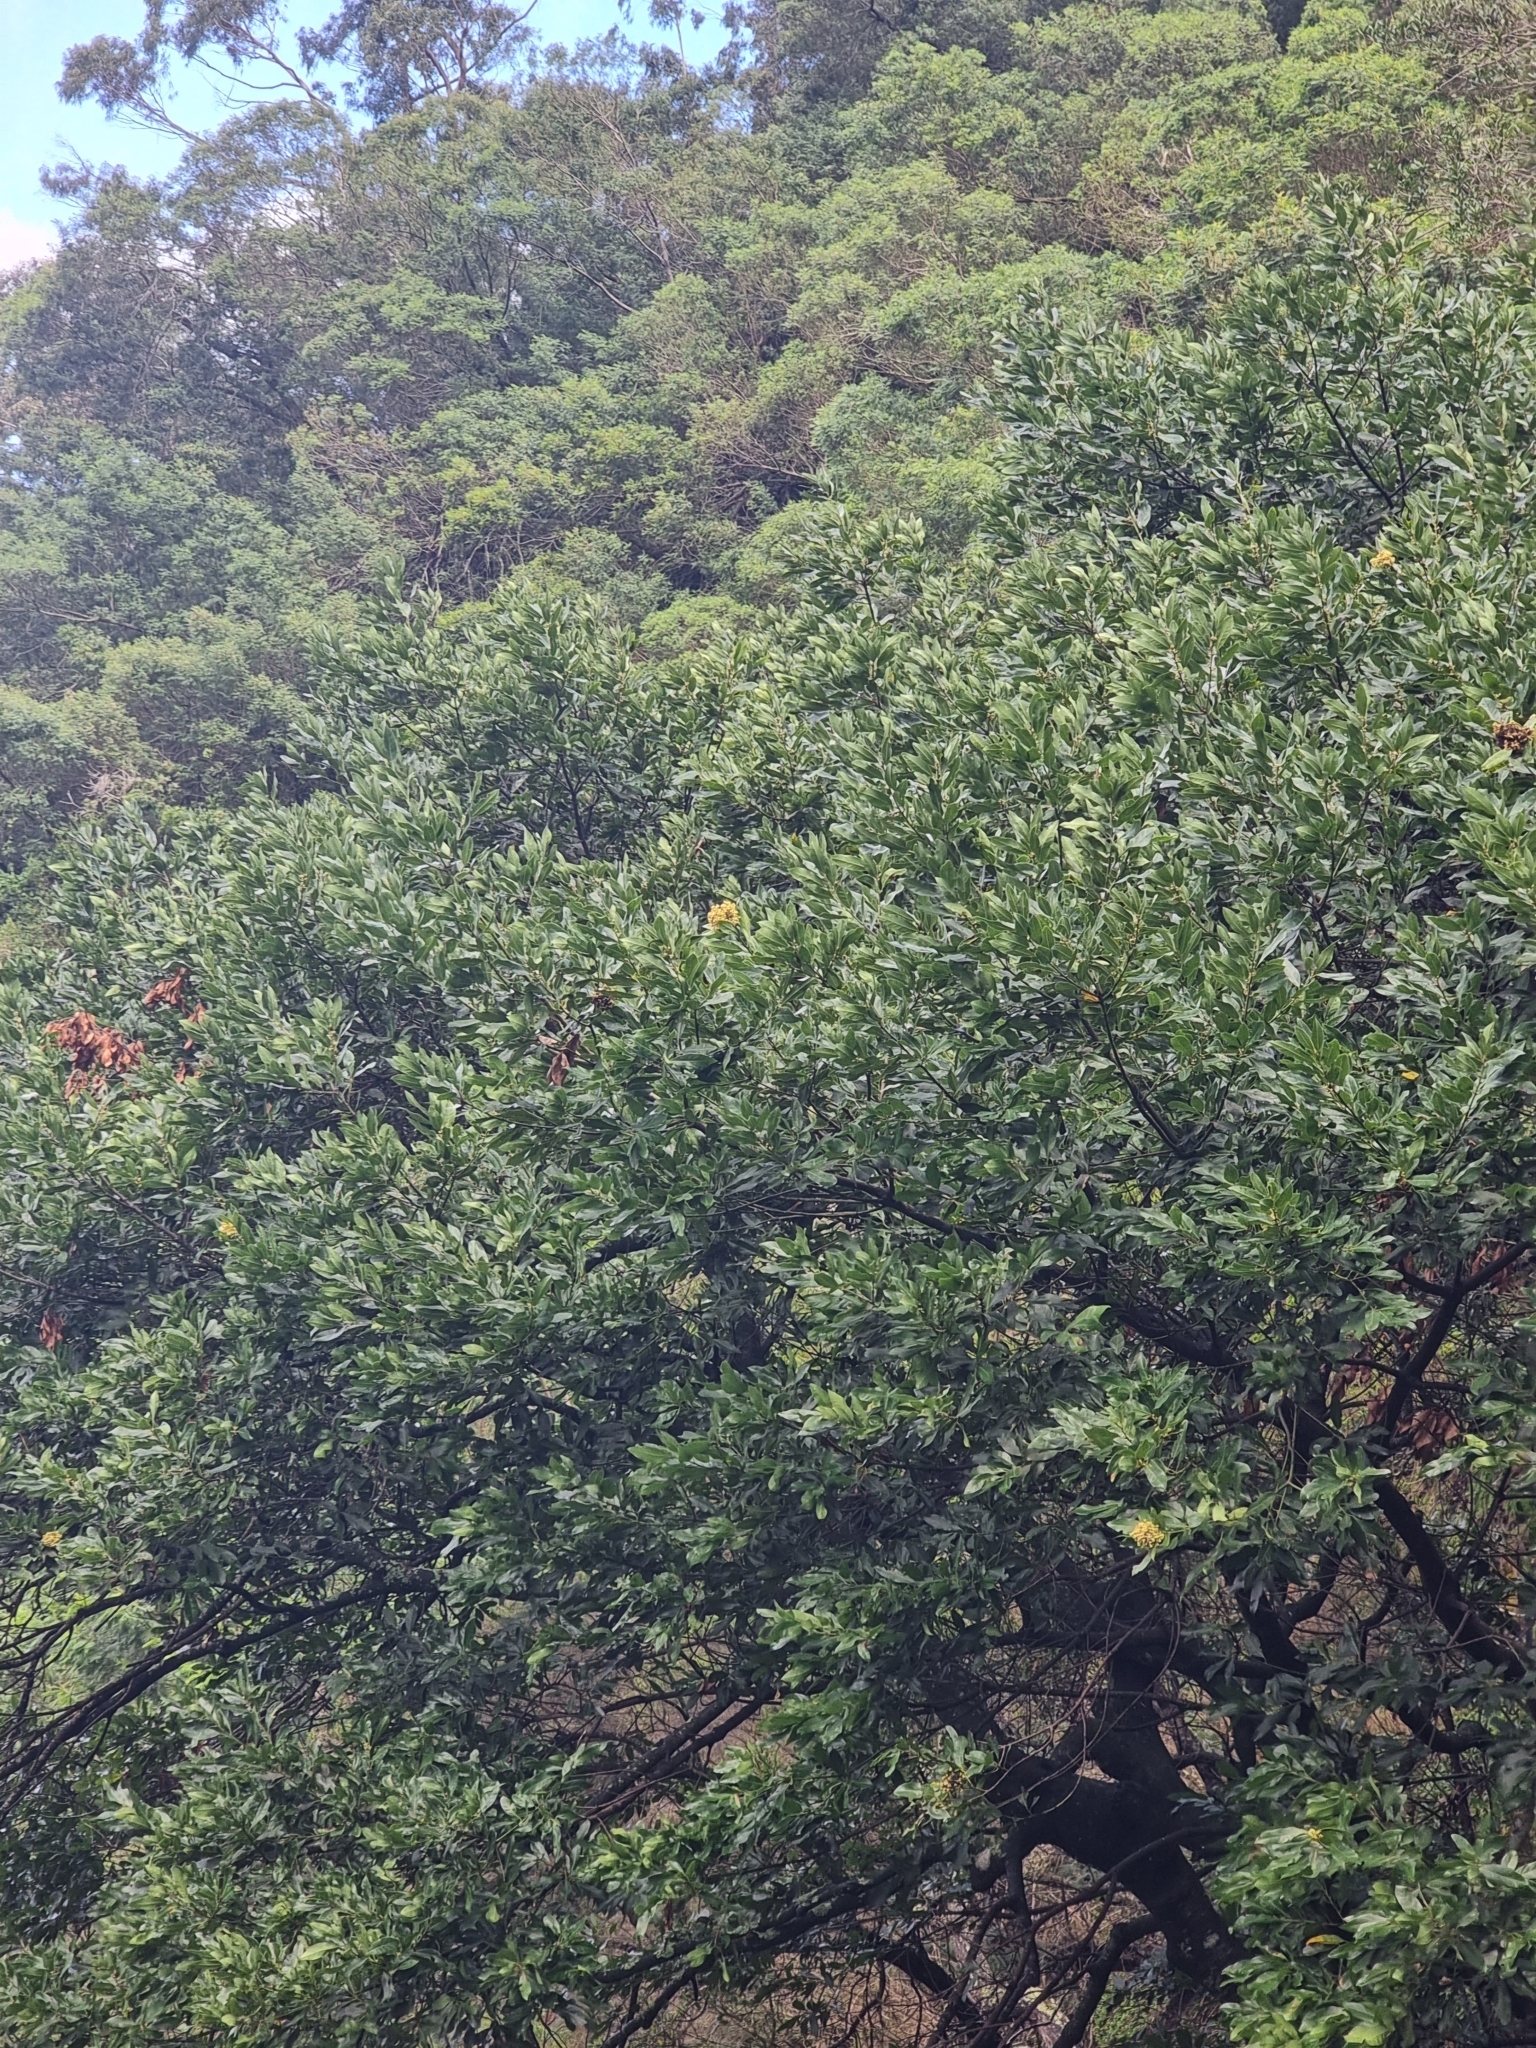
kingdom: Plantae
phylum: Tracheophyta
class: Magnoliopsida
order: Laurales
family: Lauraceae
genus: Laurus
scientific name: Laurus novocanariensis
